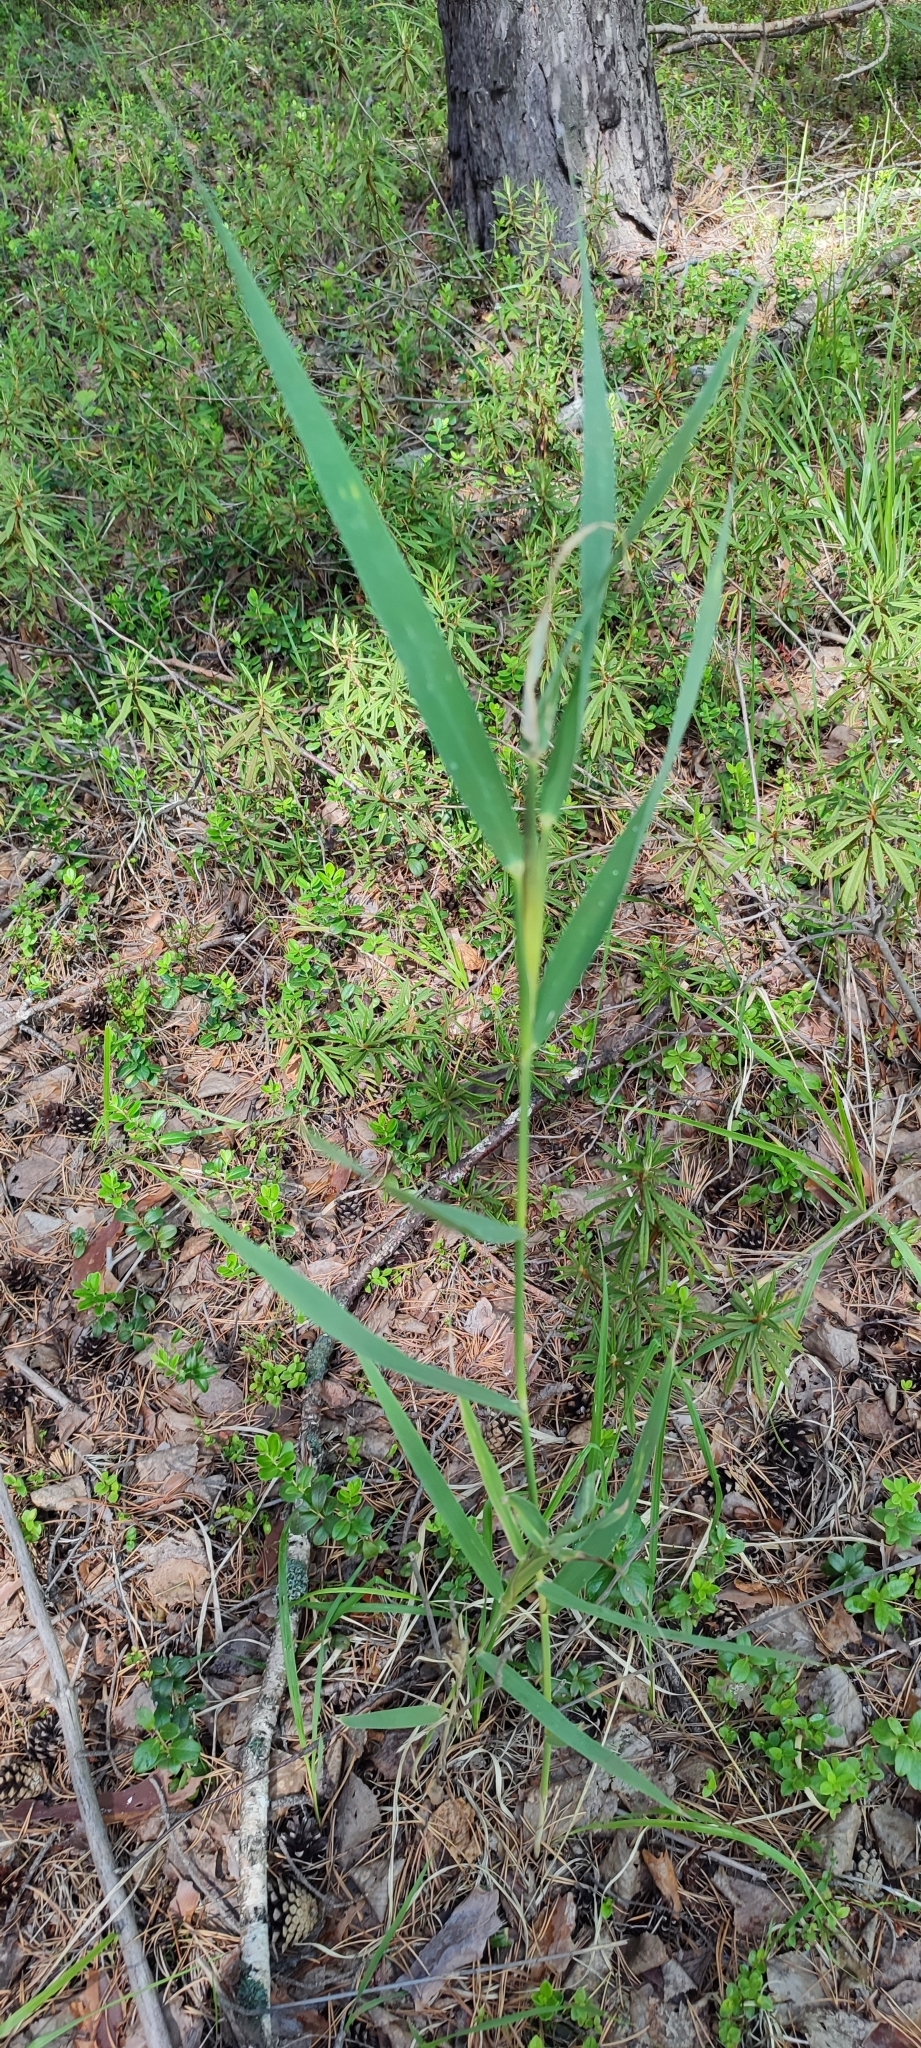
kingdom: Plantae
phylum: Tracheophyta
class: Liliopsida
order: Poales
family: Poaceae
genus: Phragmites
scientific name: Phragmites australis
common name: Common reed
